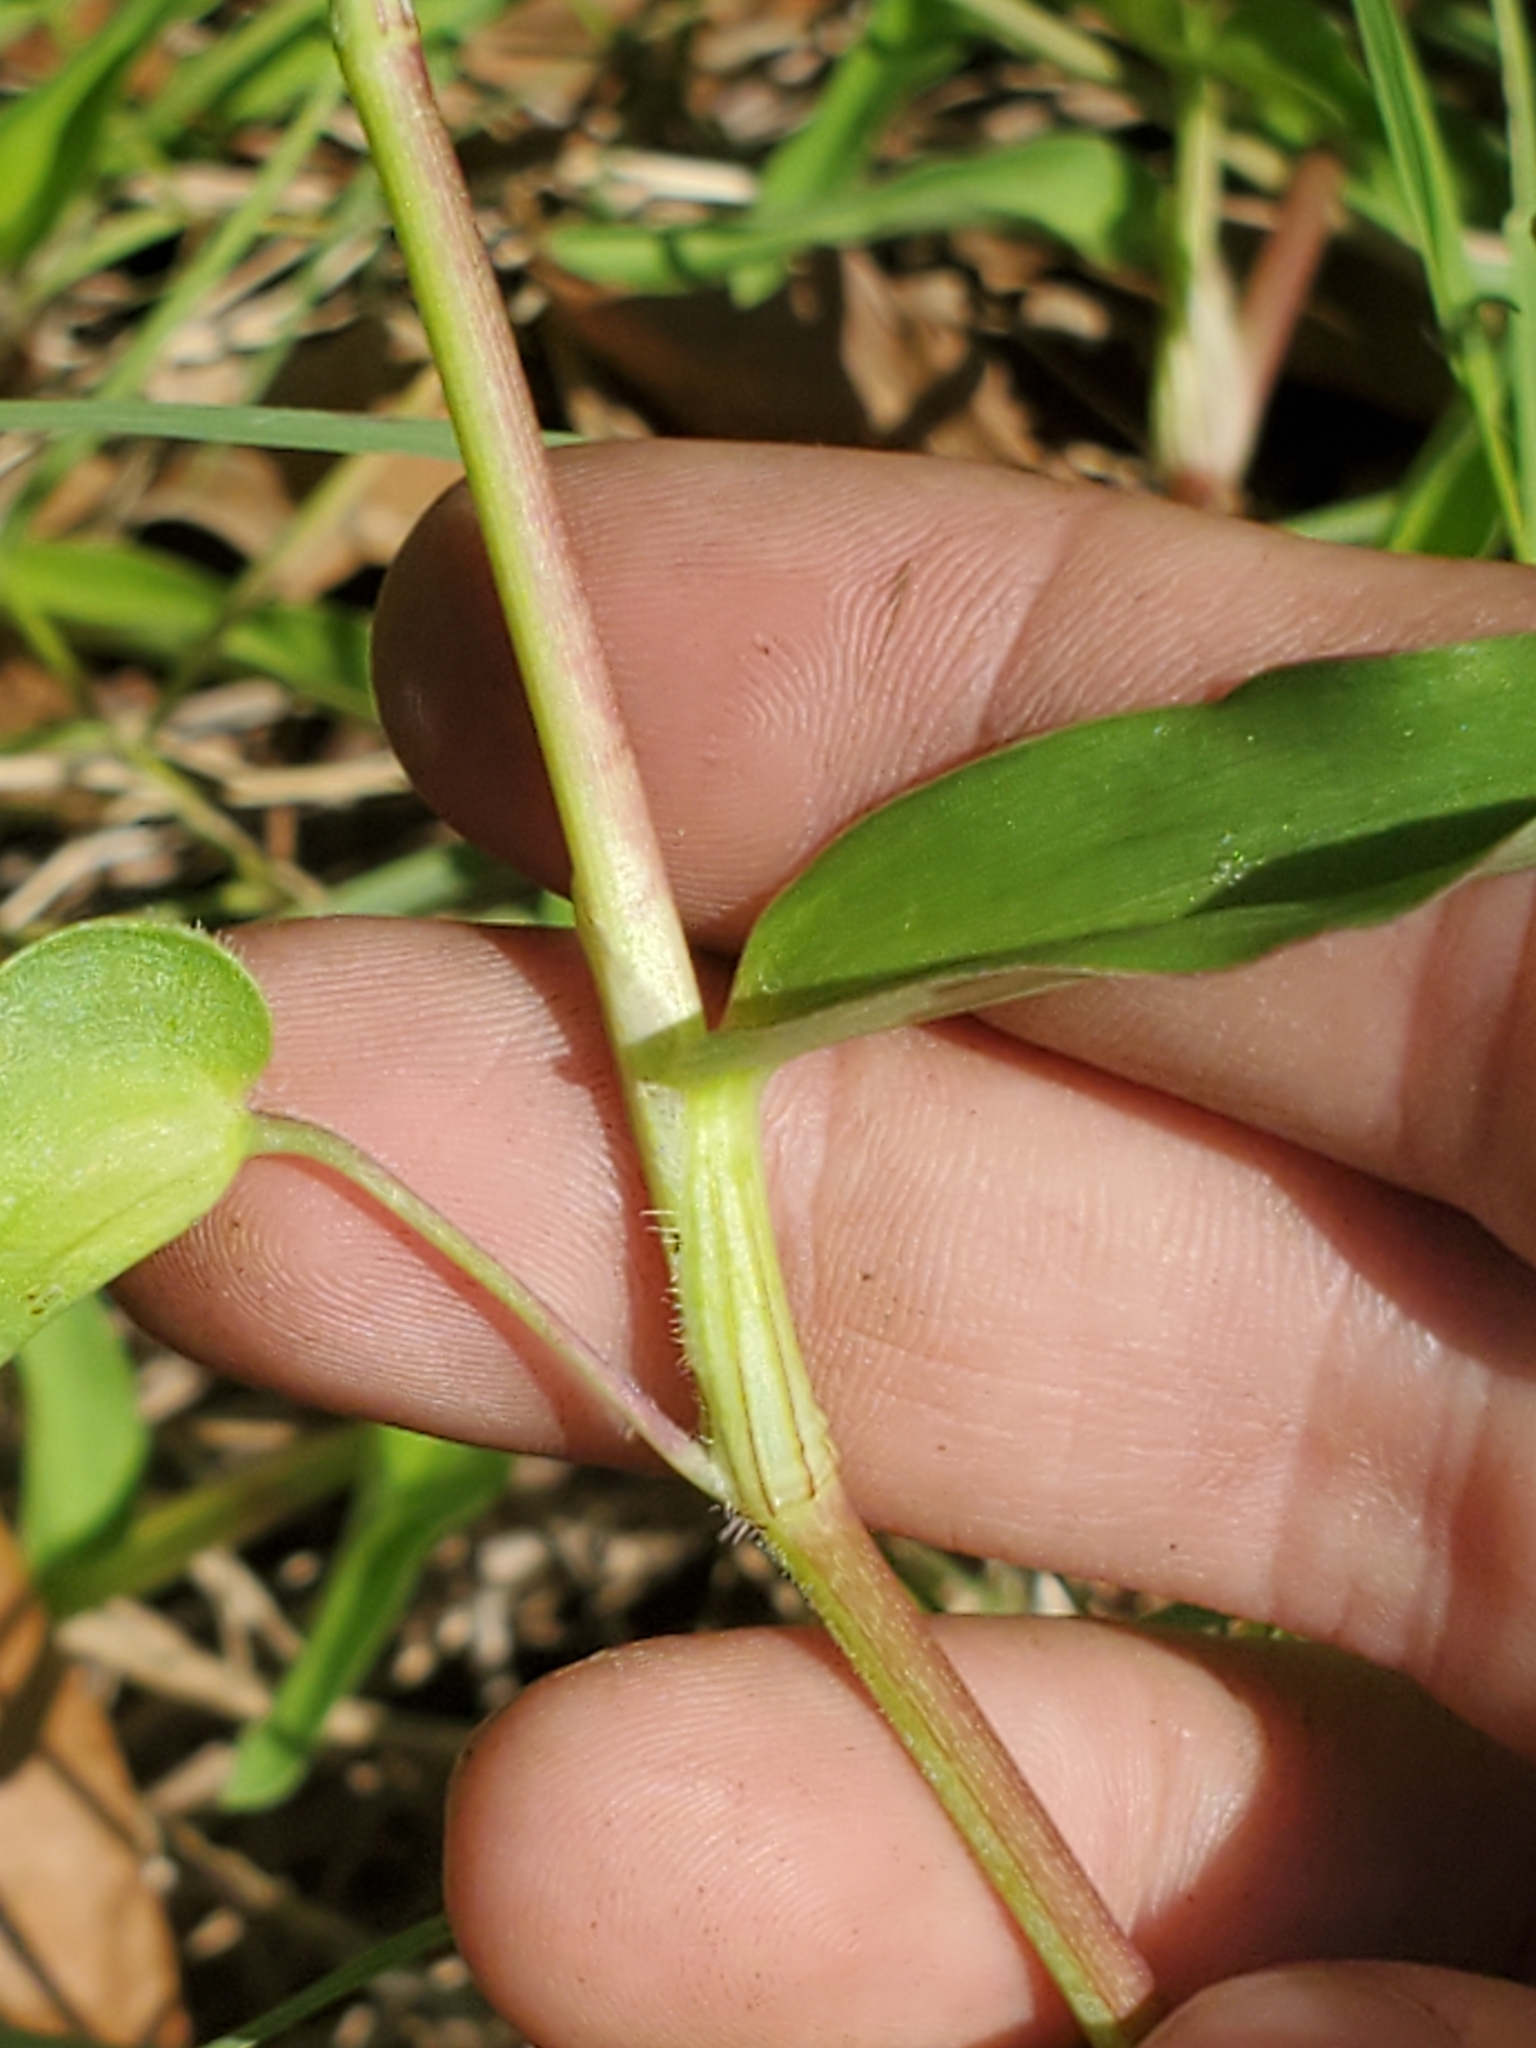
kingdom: Plantae
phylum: Tracheophyta
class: Liliopsida
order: Commelinales
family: Commelinaceae
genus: Commelina
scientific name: Commelina diffusa
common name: Climbing dayflower
